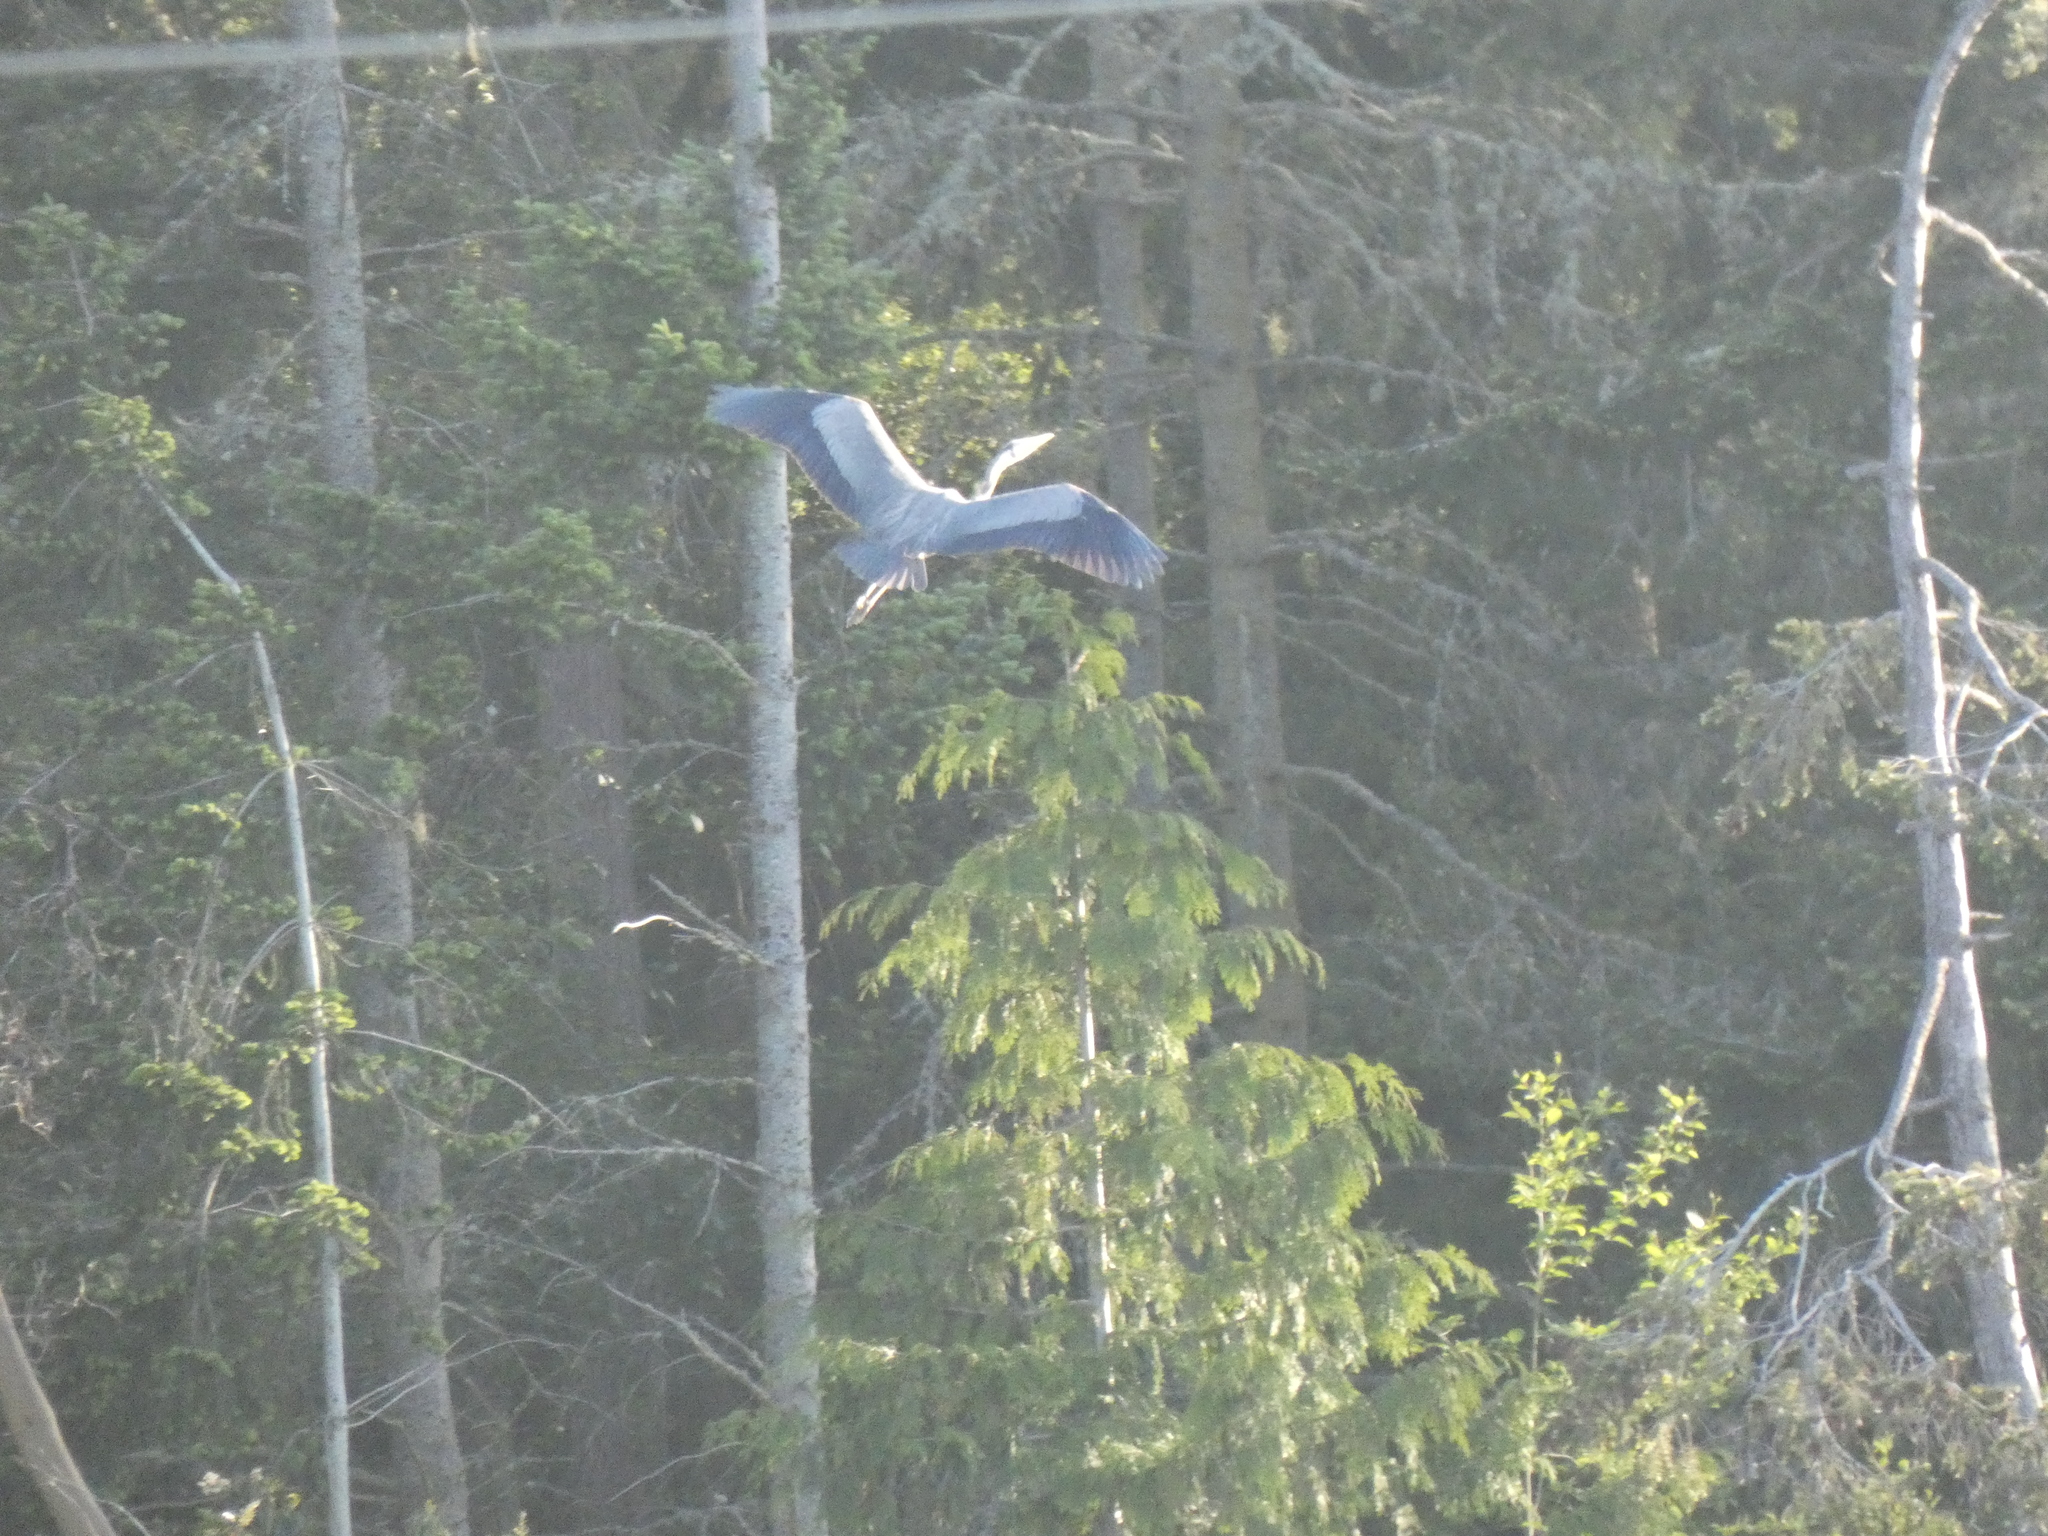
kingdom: Animalia
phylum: Chordata
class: Aves
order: Pelecaniformes
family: Ardeidae
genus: Ardea
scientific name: Ardea herodias
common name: Great blue heron
